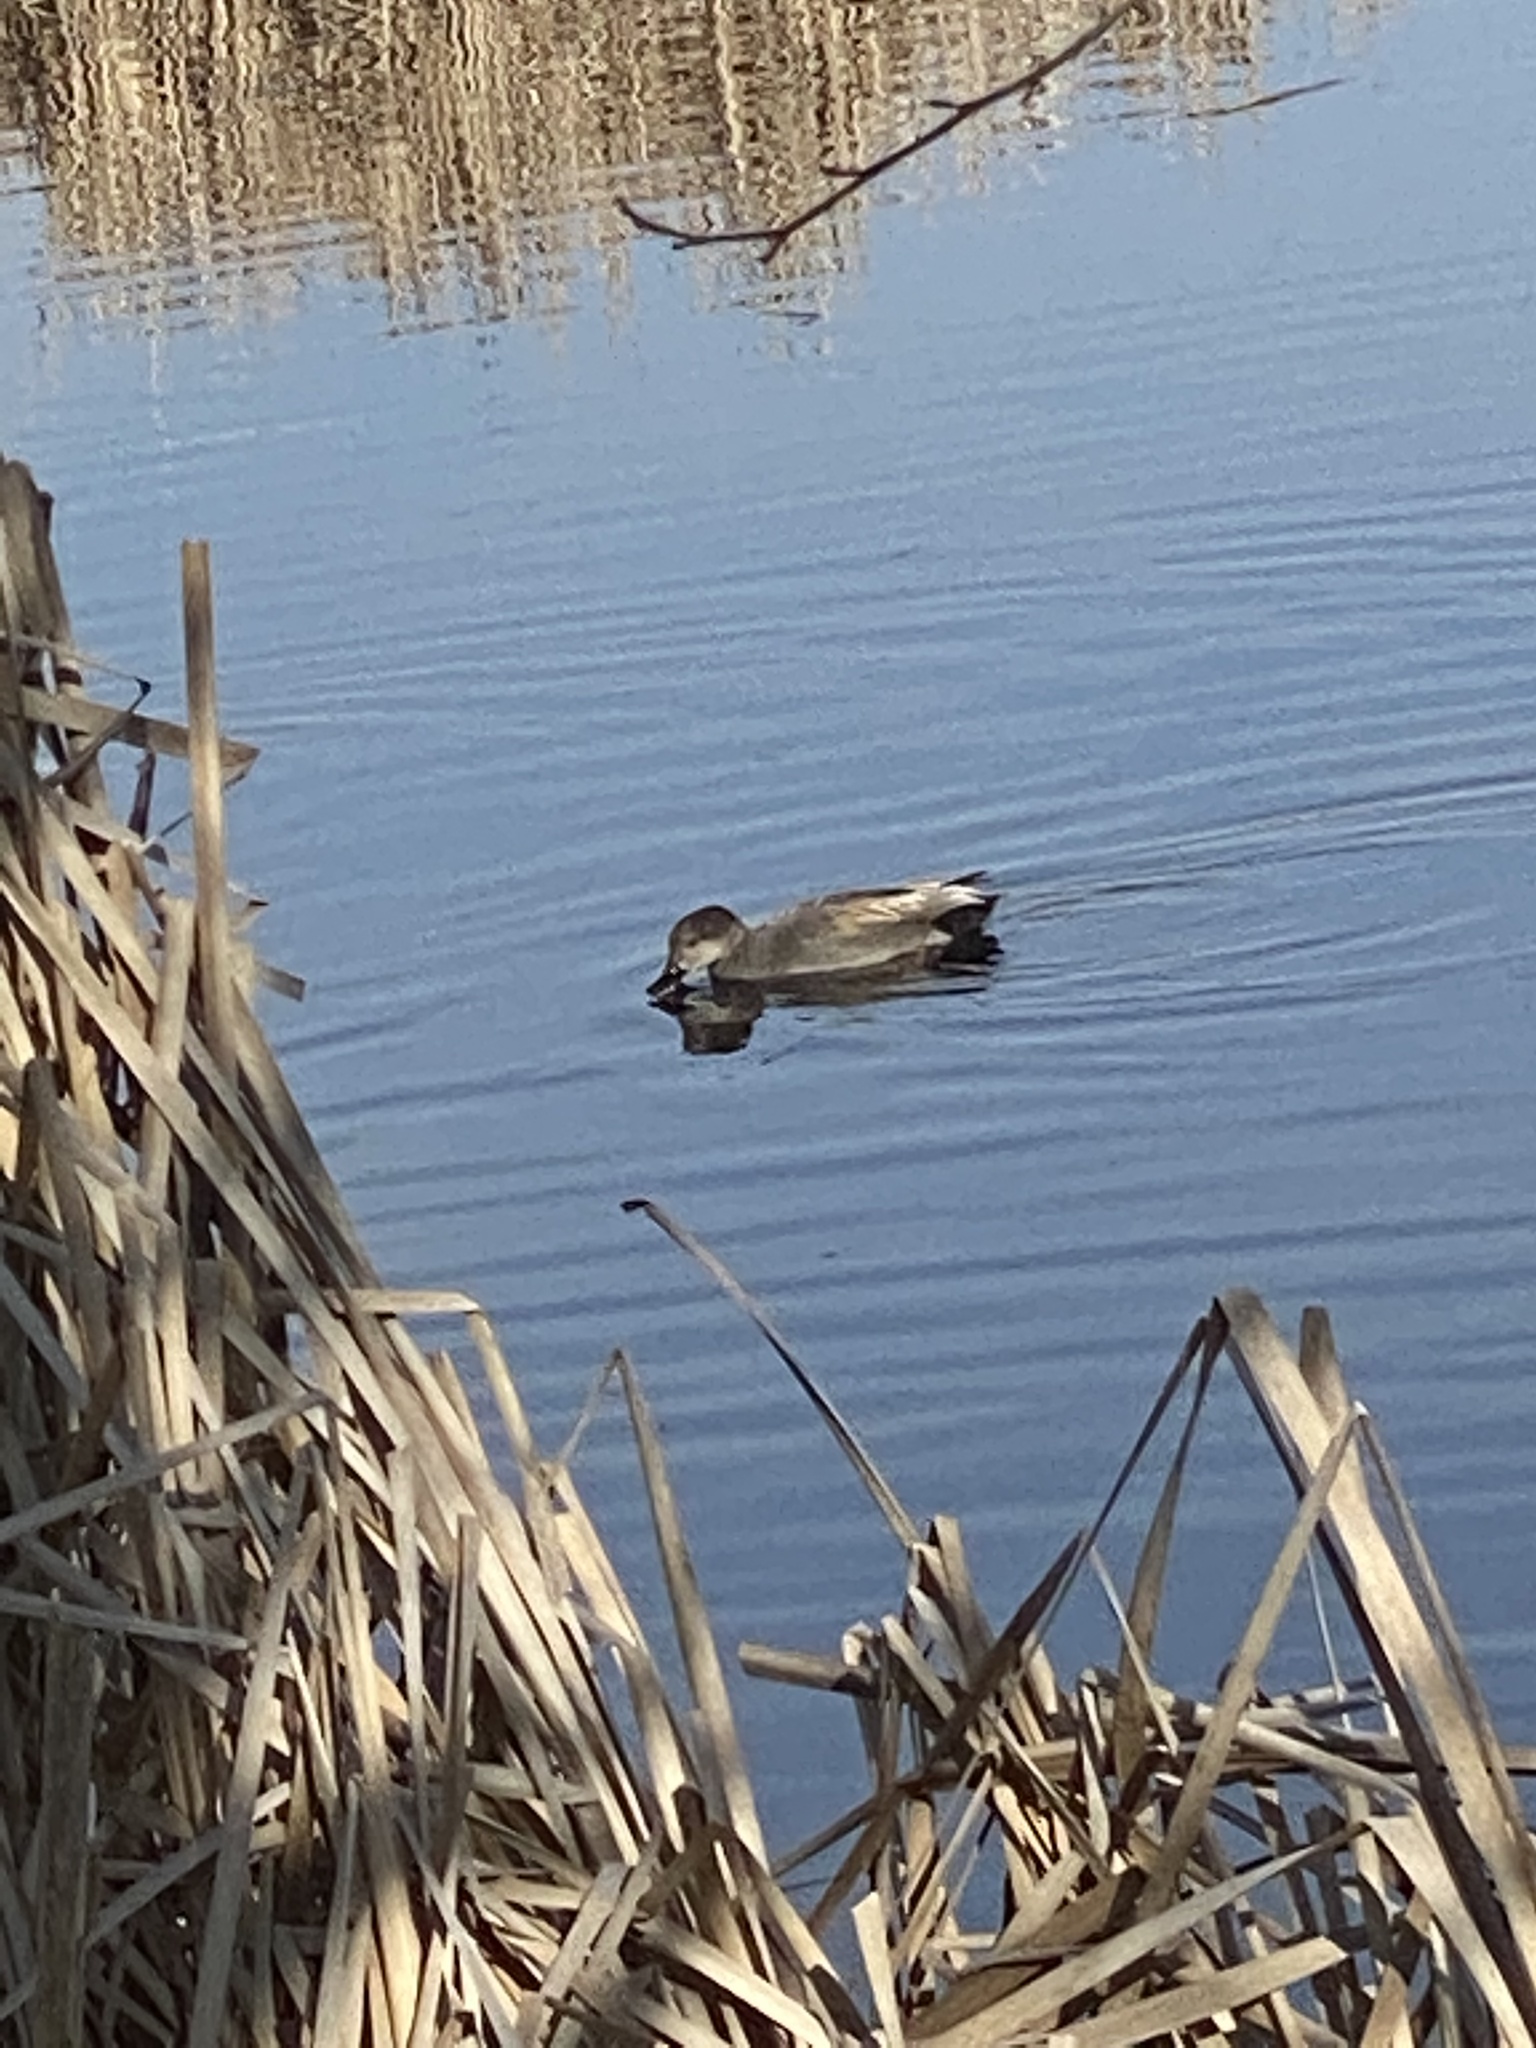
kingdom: Animalia
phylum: Chordata
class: Aves
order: Anseriformes
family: Anatidae
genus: Mareca
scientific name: Mareca strepera
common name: Gadwall
